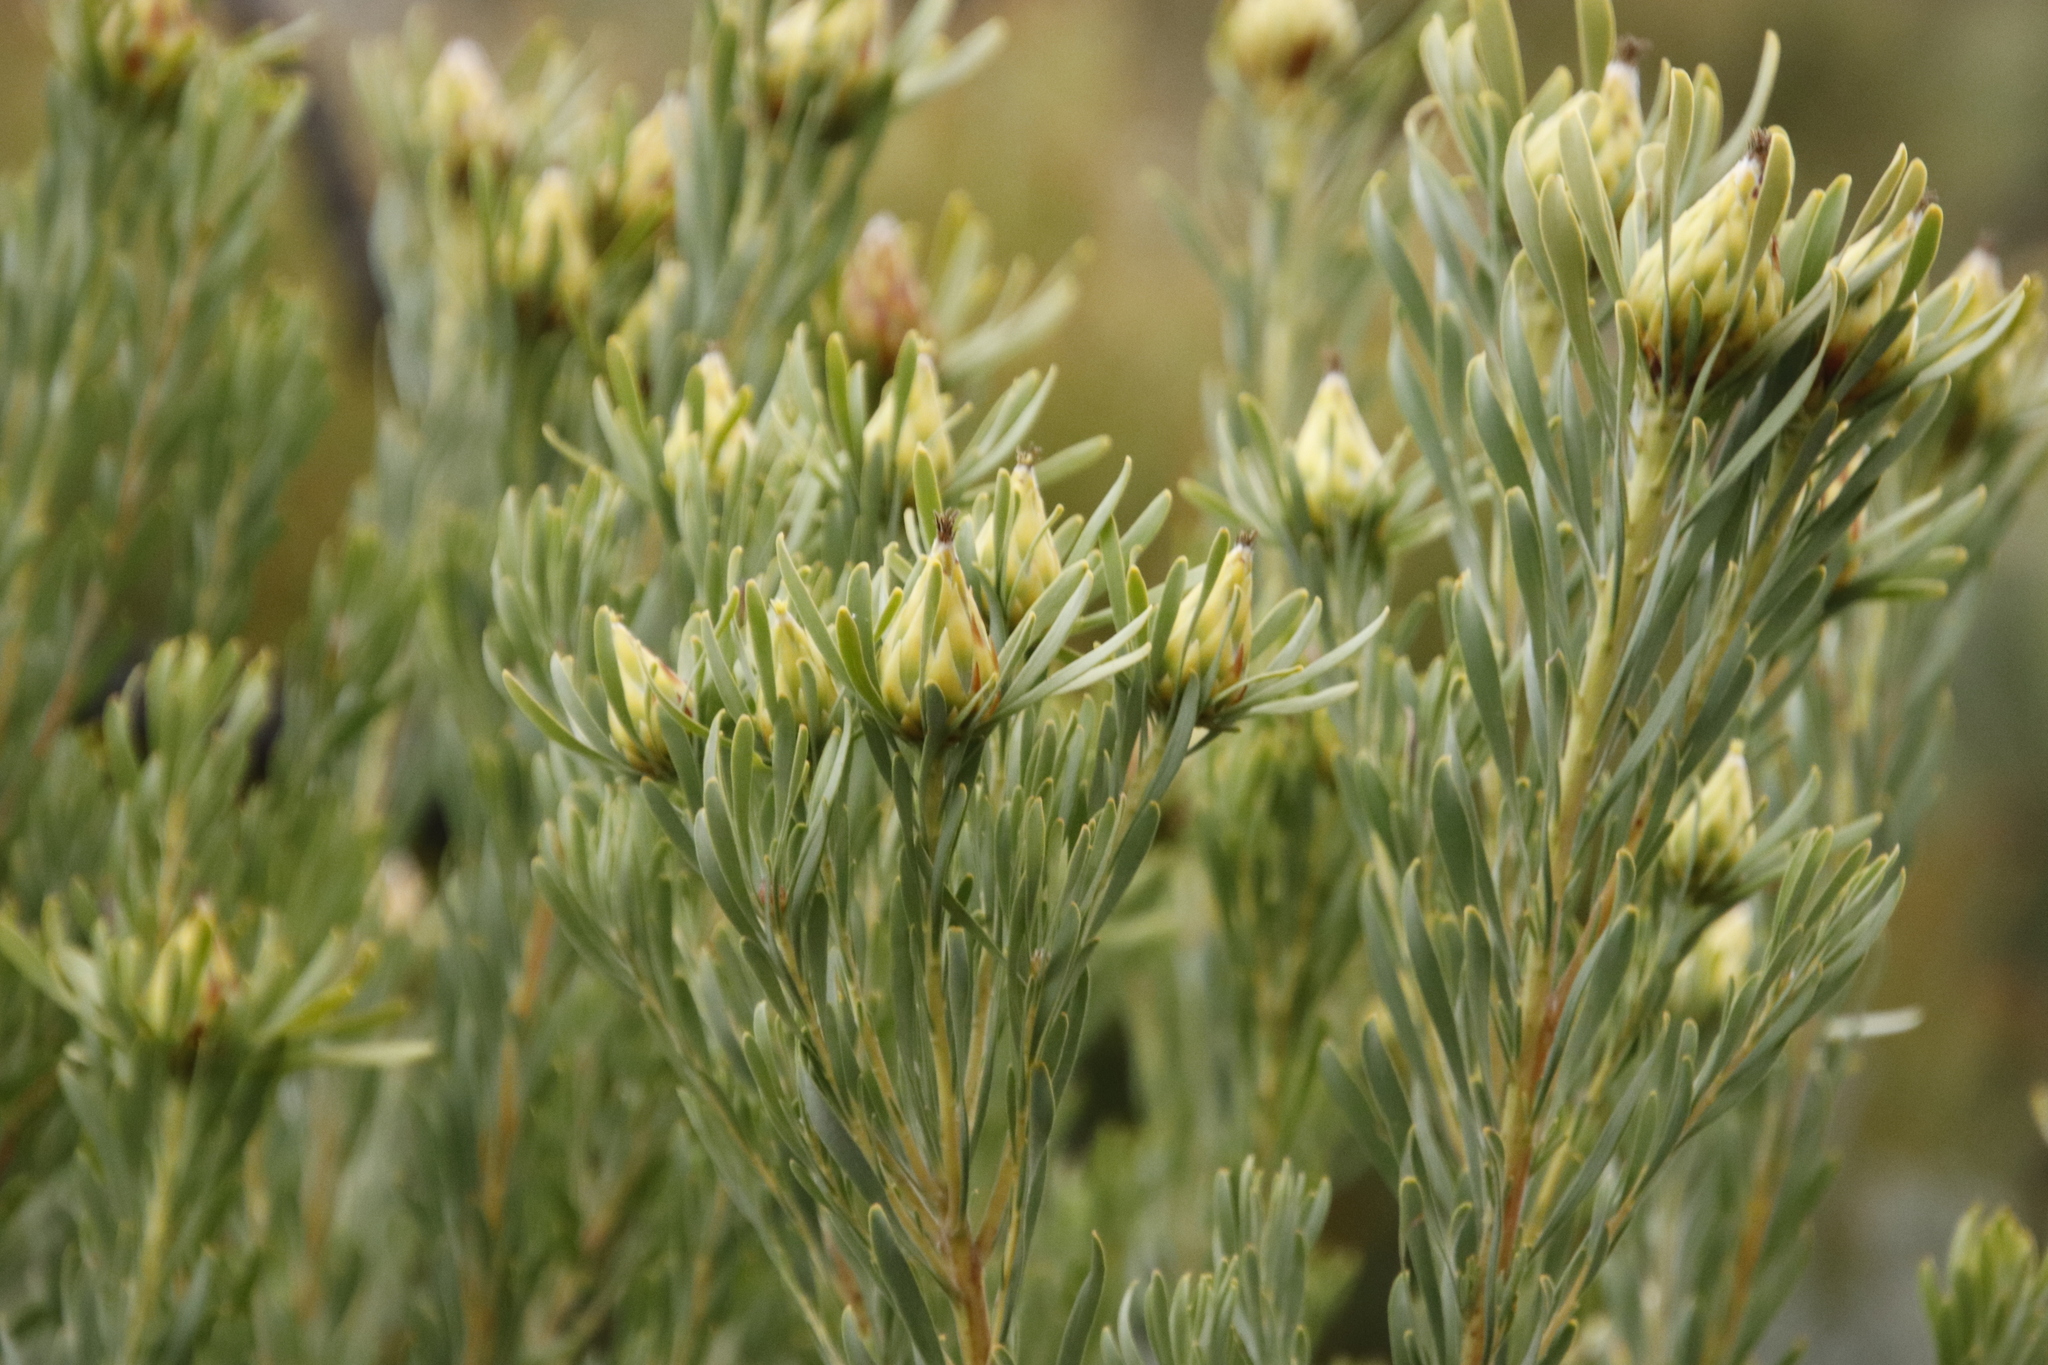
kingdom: Plantae
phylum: Tracheophyta
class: Magnoliopsida
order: Proteales
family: Proteaceae
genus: Leucadendron
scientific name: Leucadendron rubrum
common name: Spinning top
